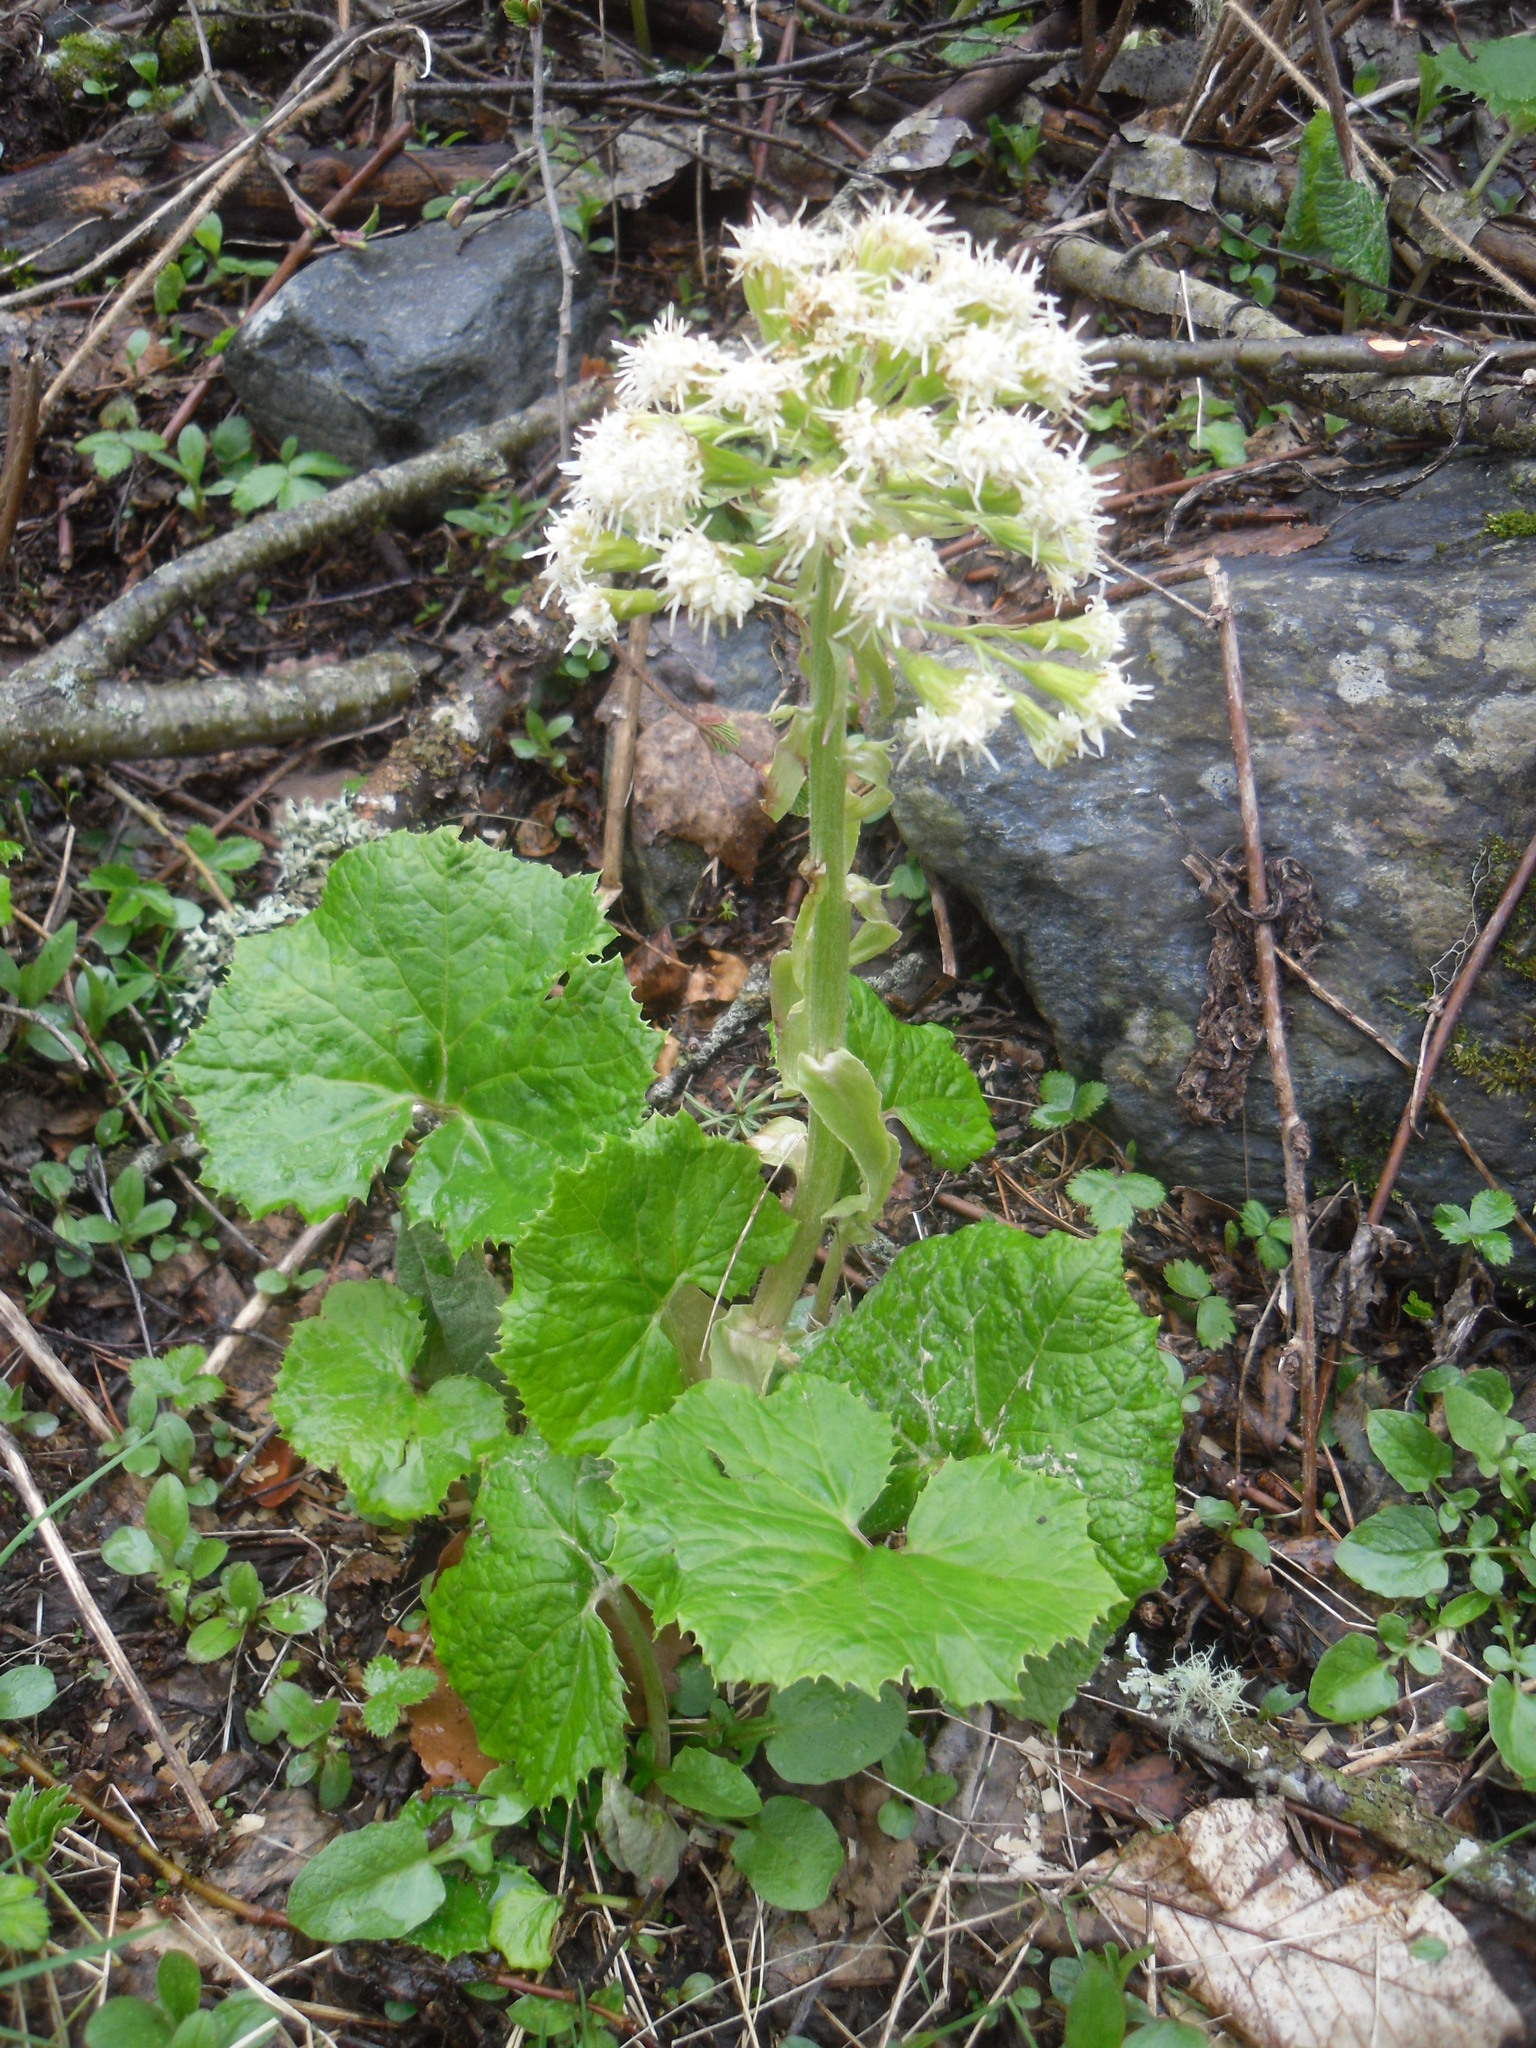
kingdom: Plantae
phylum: Tracheophyta
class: Magnoliopsida
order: Asterales
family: Asteraceae
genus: Petasites
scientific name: Petasites albus
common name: White butterbur
